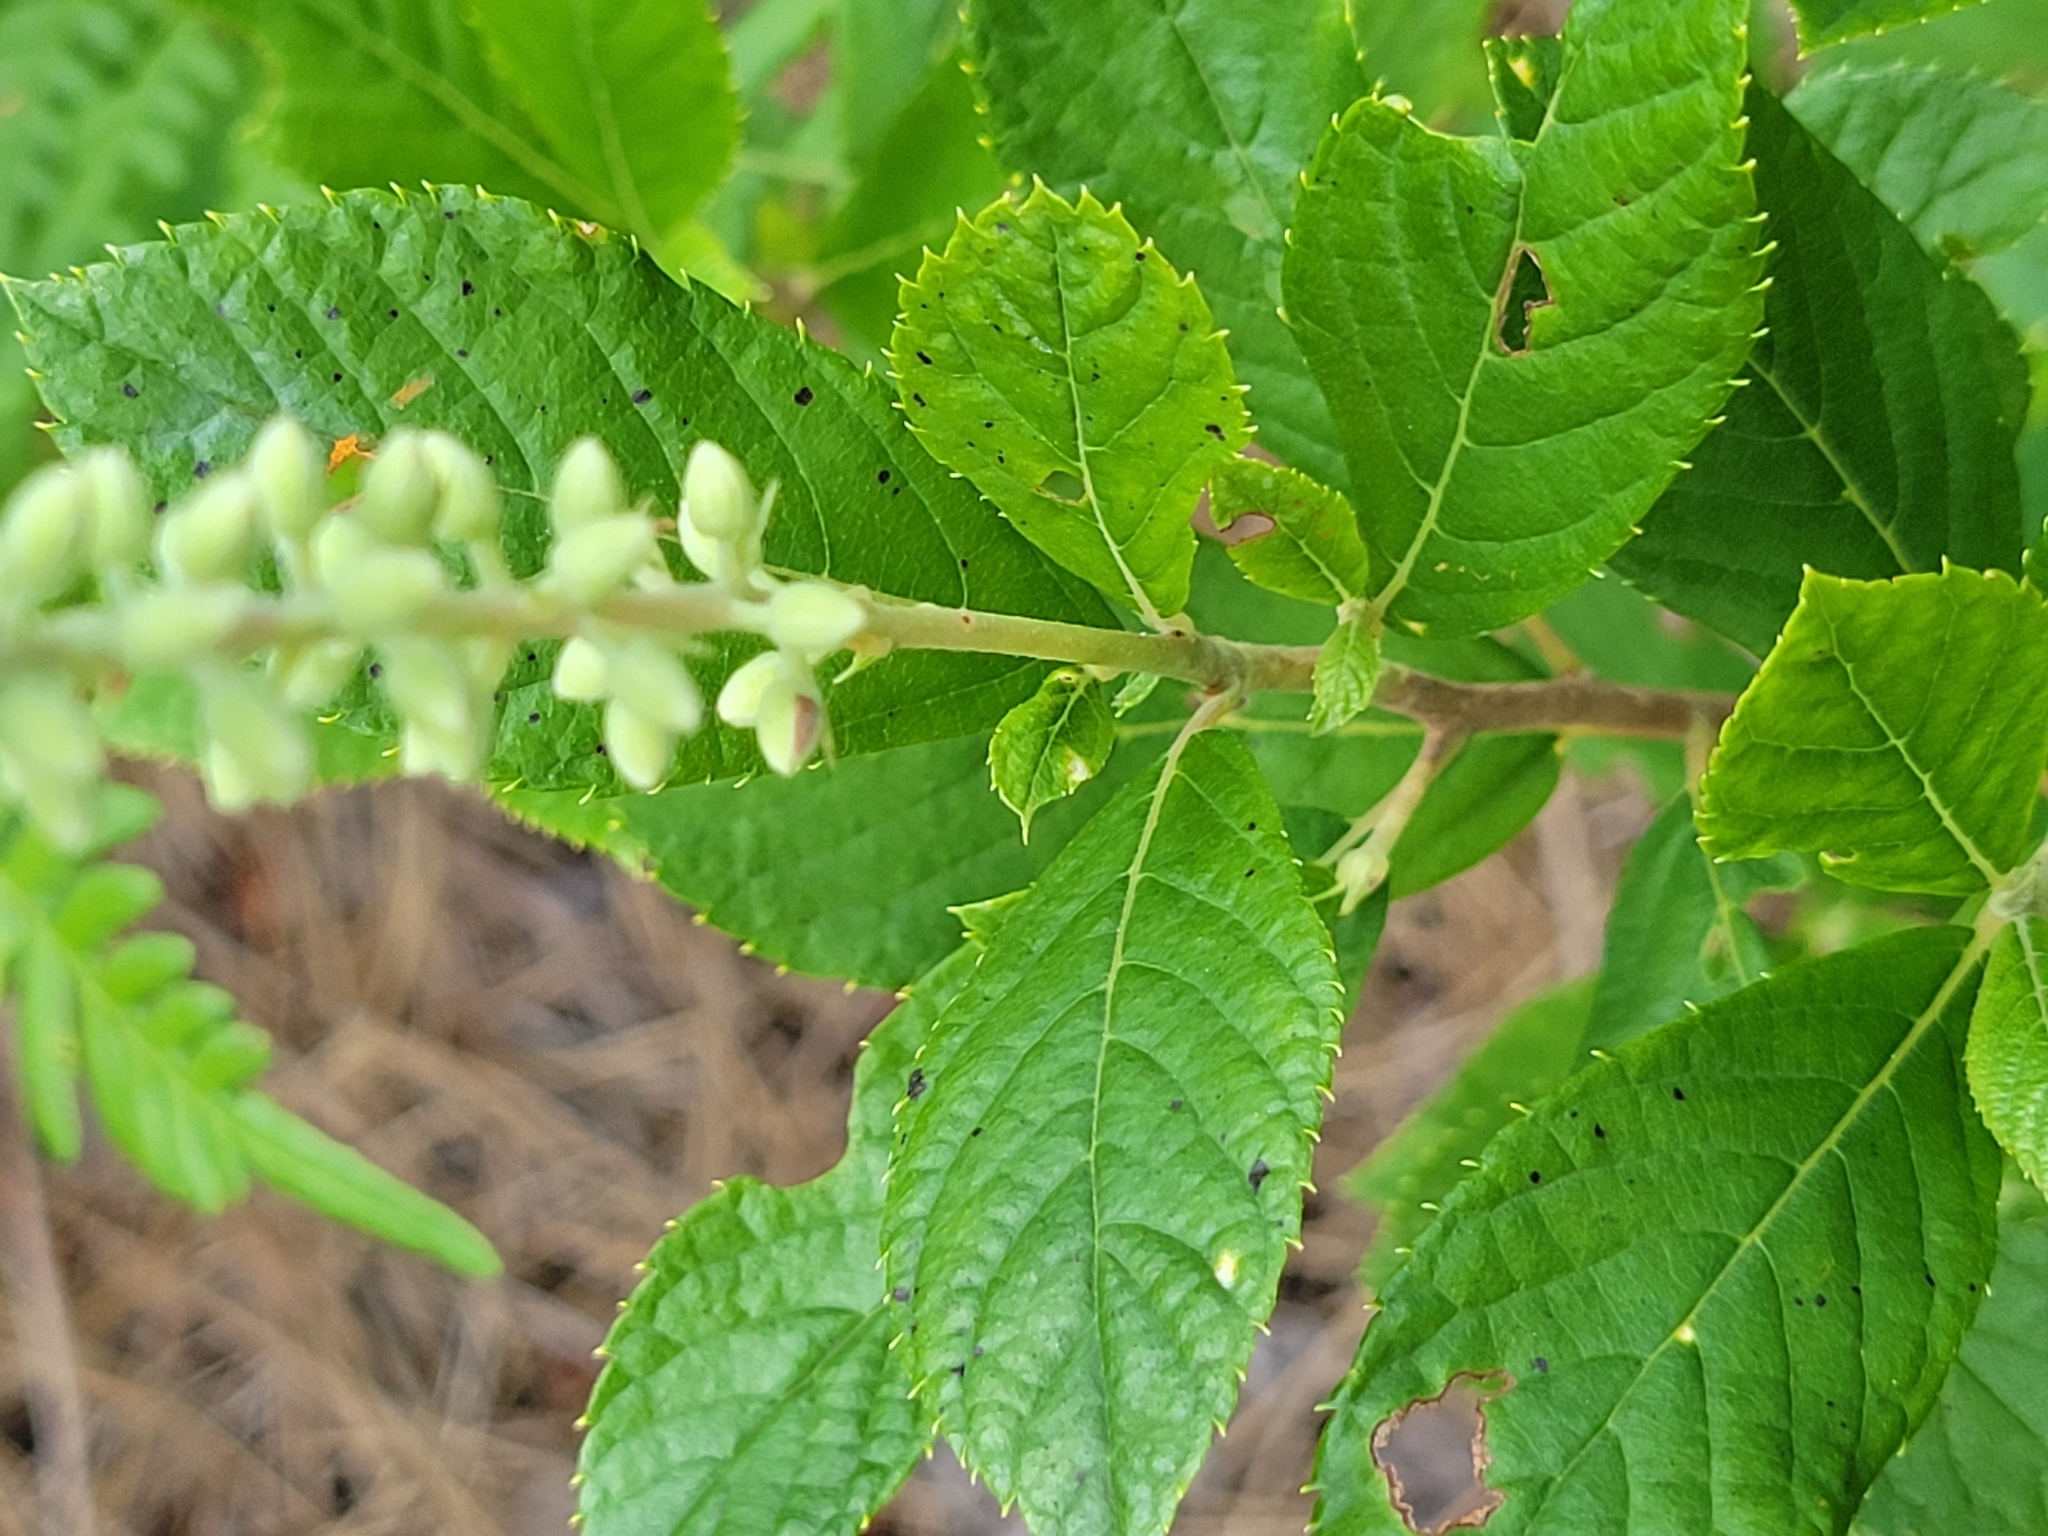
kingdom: Plantae
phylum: Tracheophyta
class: Magnoliopsida
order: Ericales
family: Clethraceae
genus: Clethra
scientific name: Clethra alnifolia
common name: Sweet pepperbush
